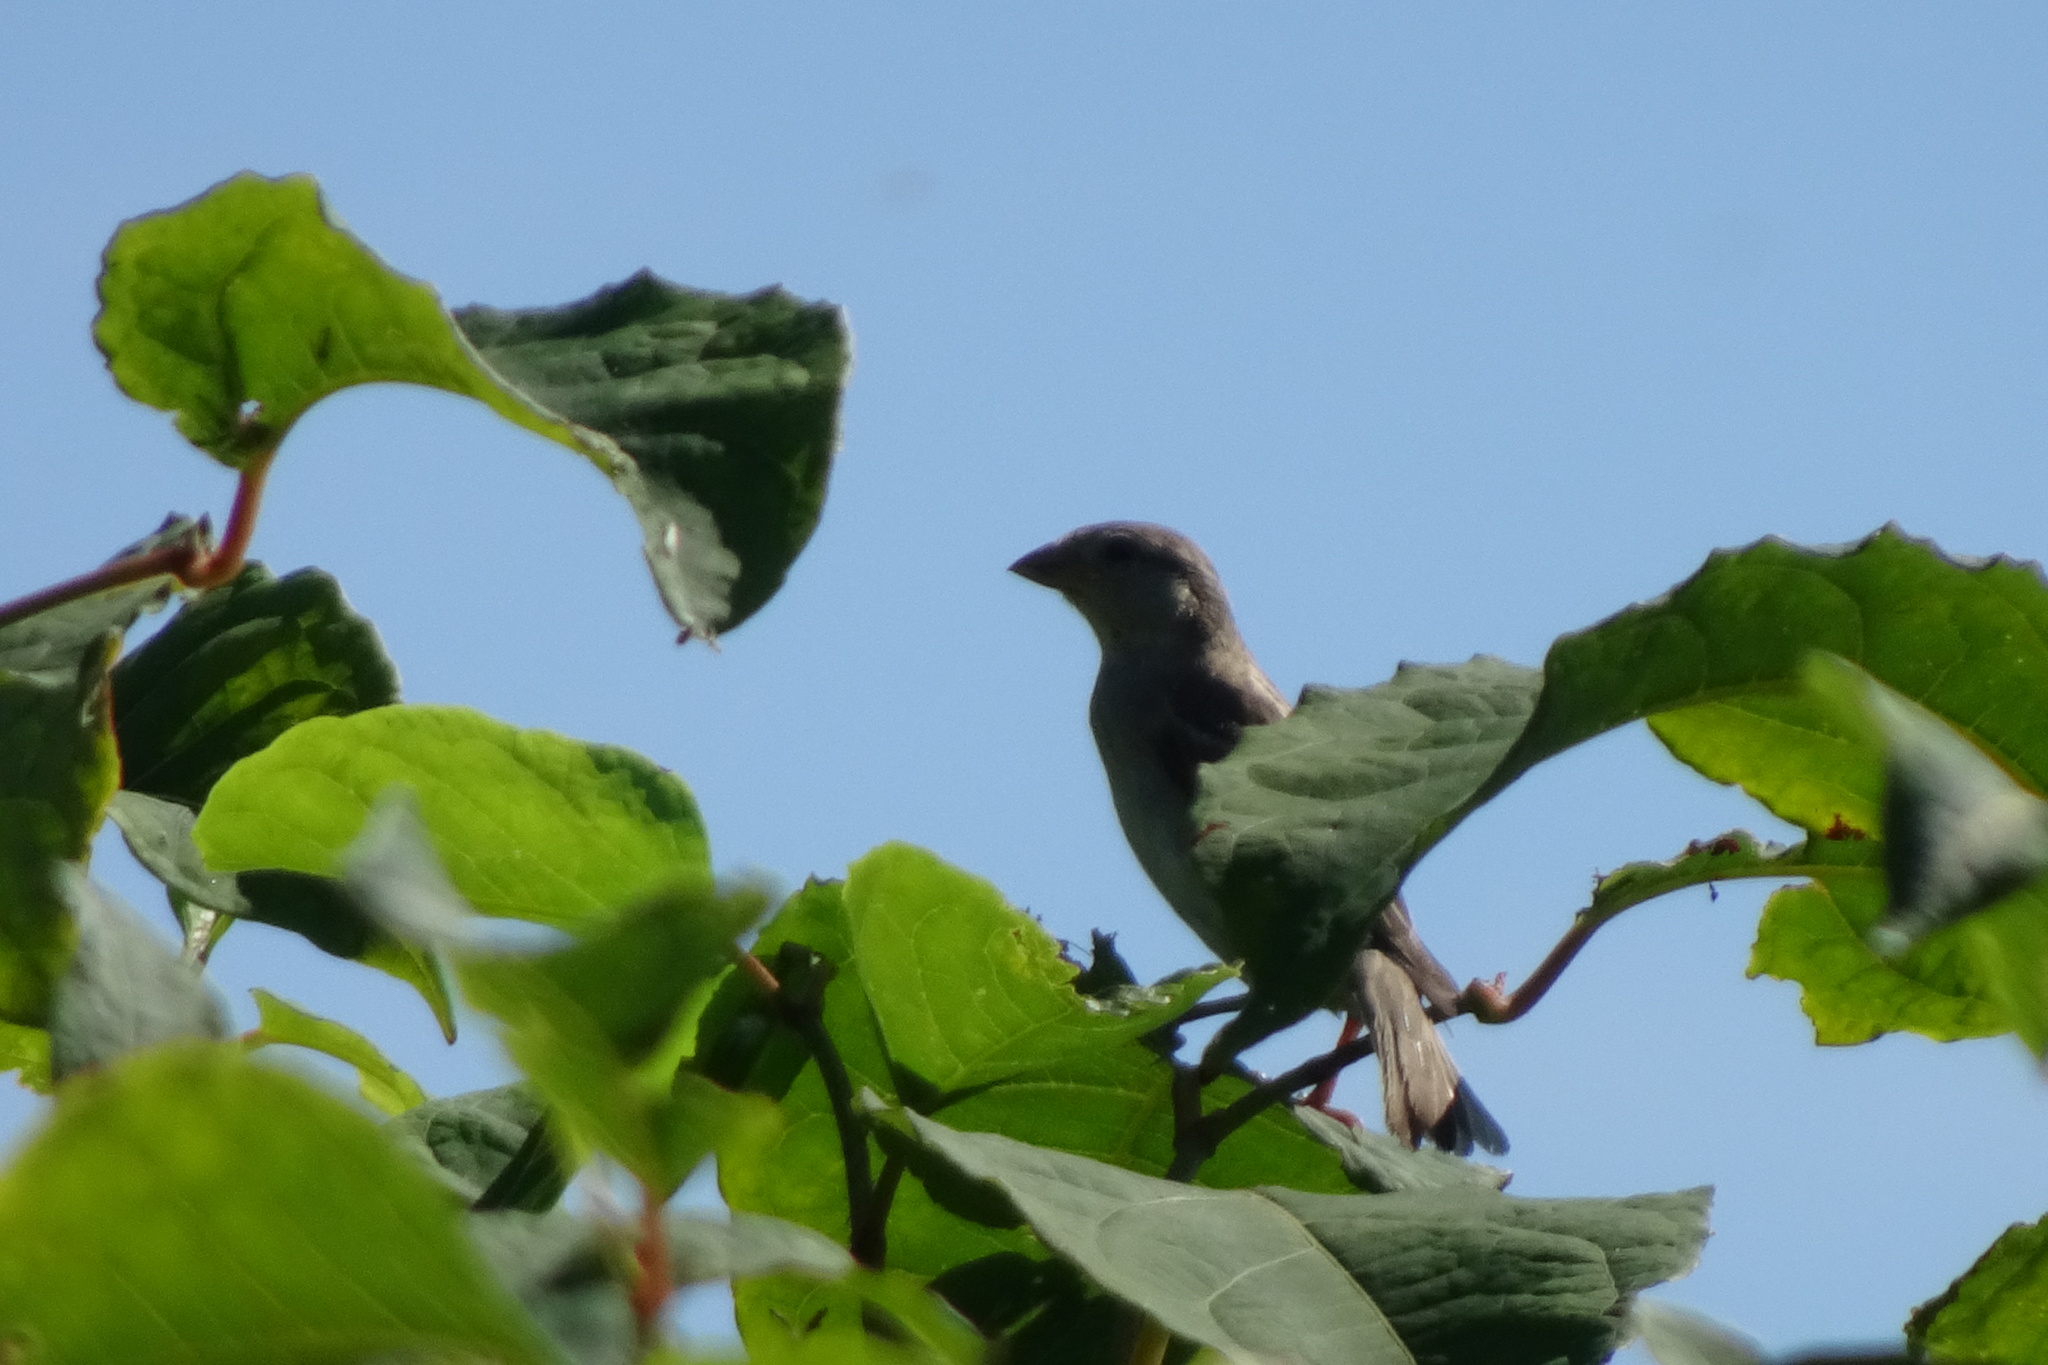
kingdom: Animalia
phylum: Chordata
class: Aves
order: Passeriformes
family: Passeridae
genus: Passer
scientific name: Passer domesticus
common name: House sparrow
